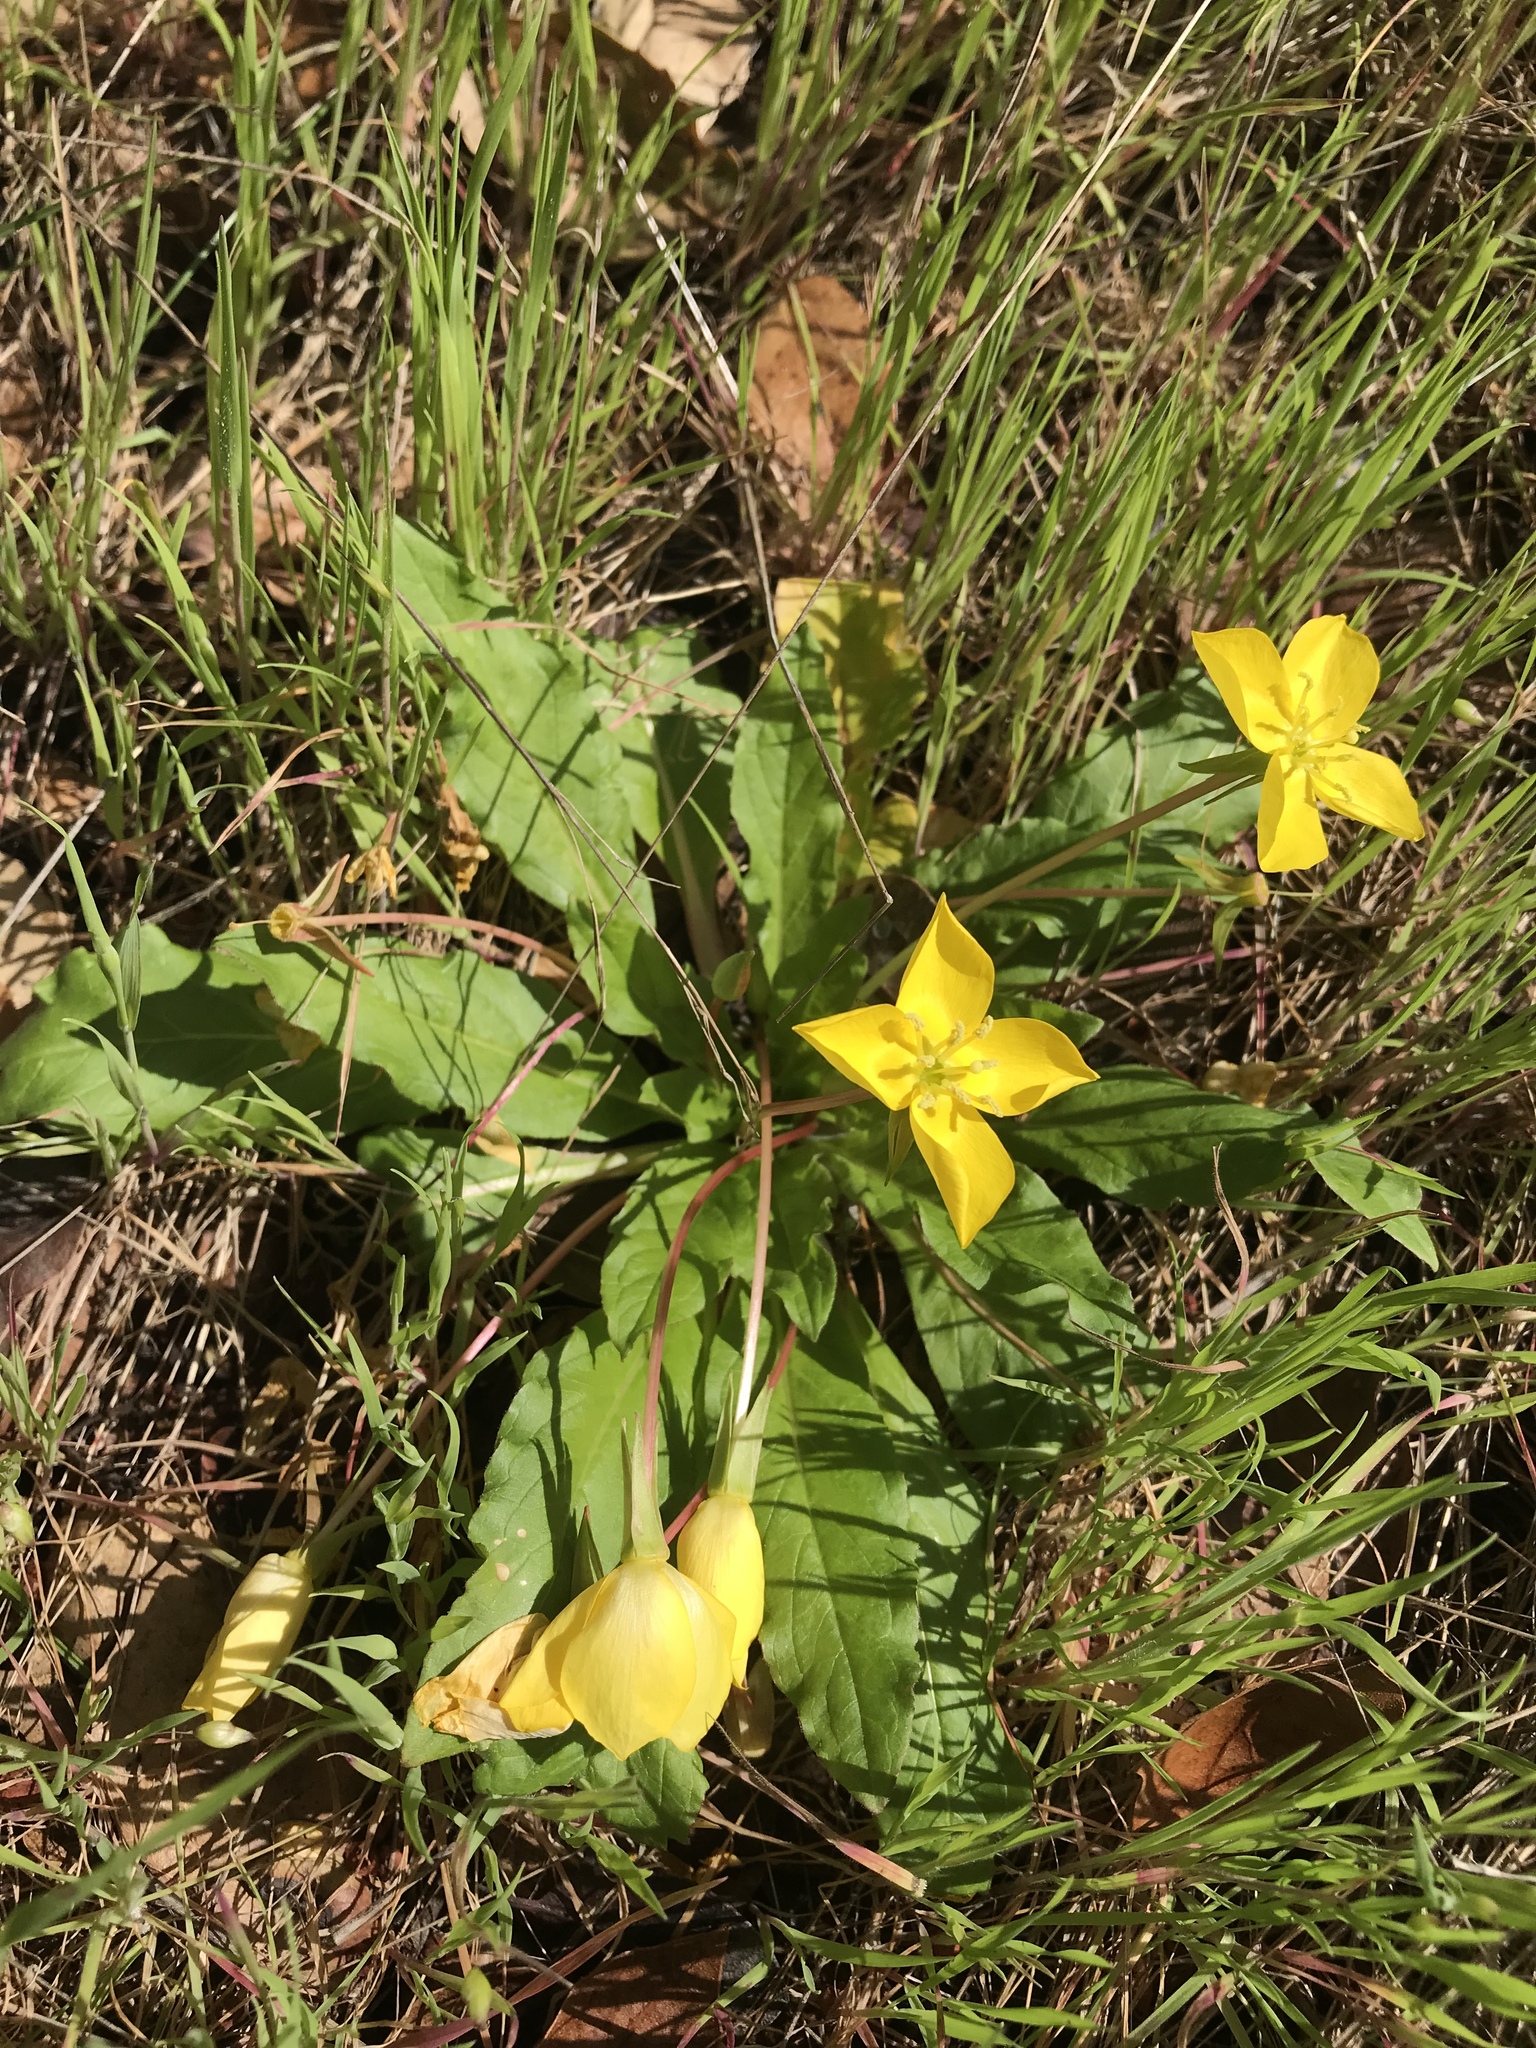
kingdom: Plantae
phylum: Tracheophyta
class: Magnoliopsida
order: Myrtales
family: Onagraceae
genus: Taraxia
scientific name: Taraxia ovata
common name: Goldeneggs
